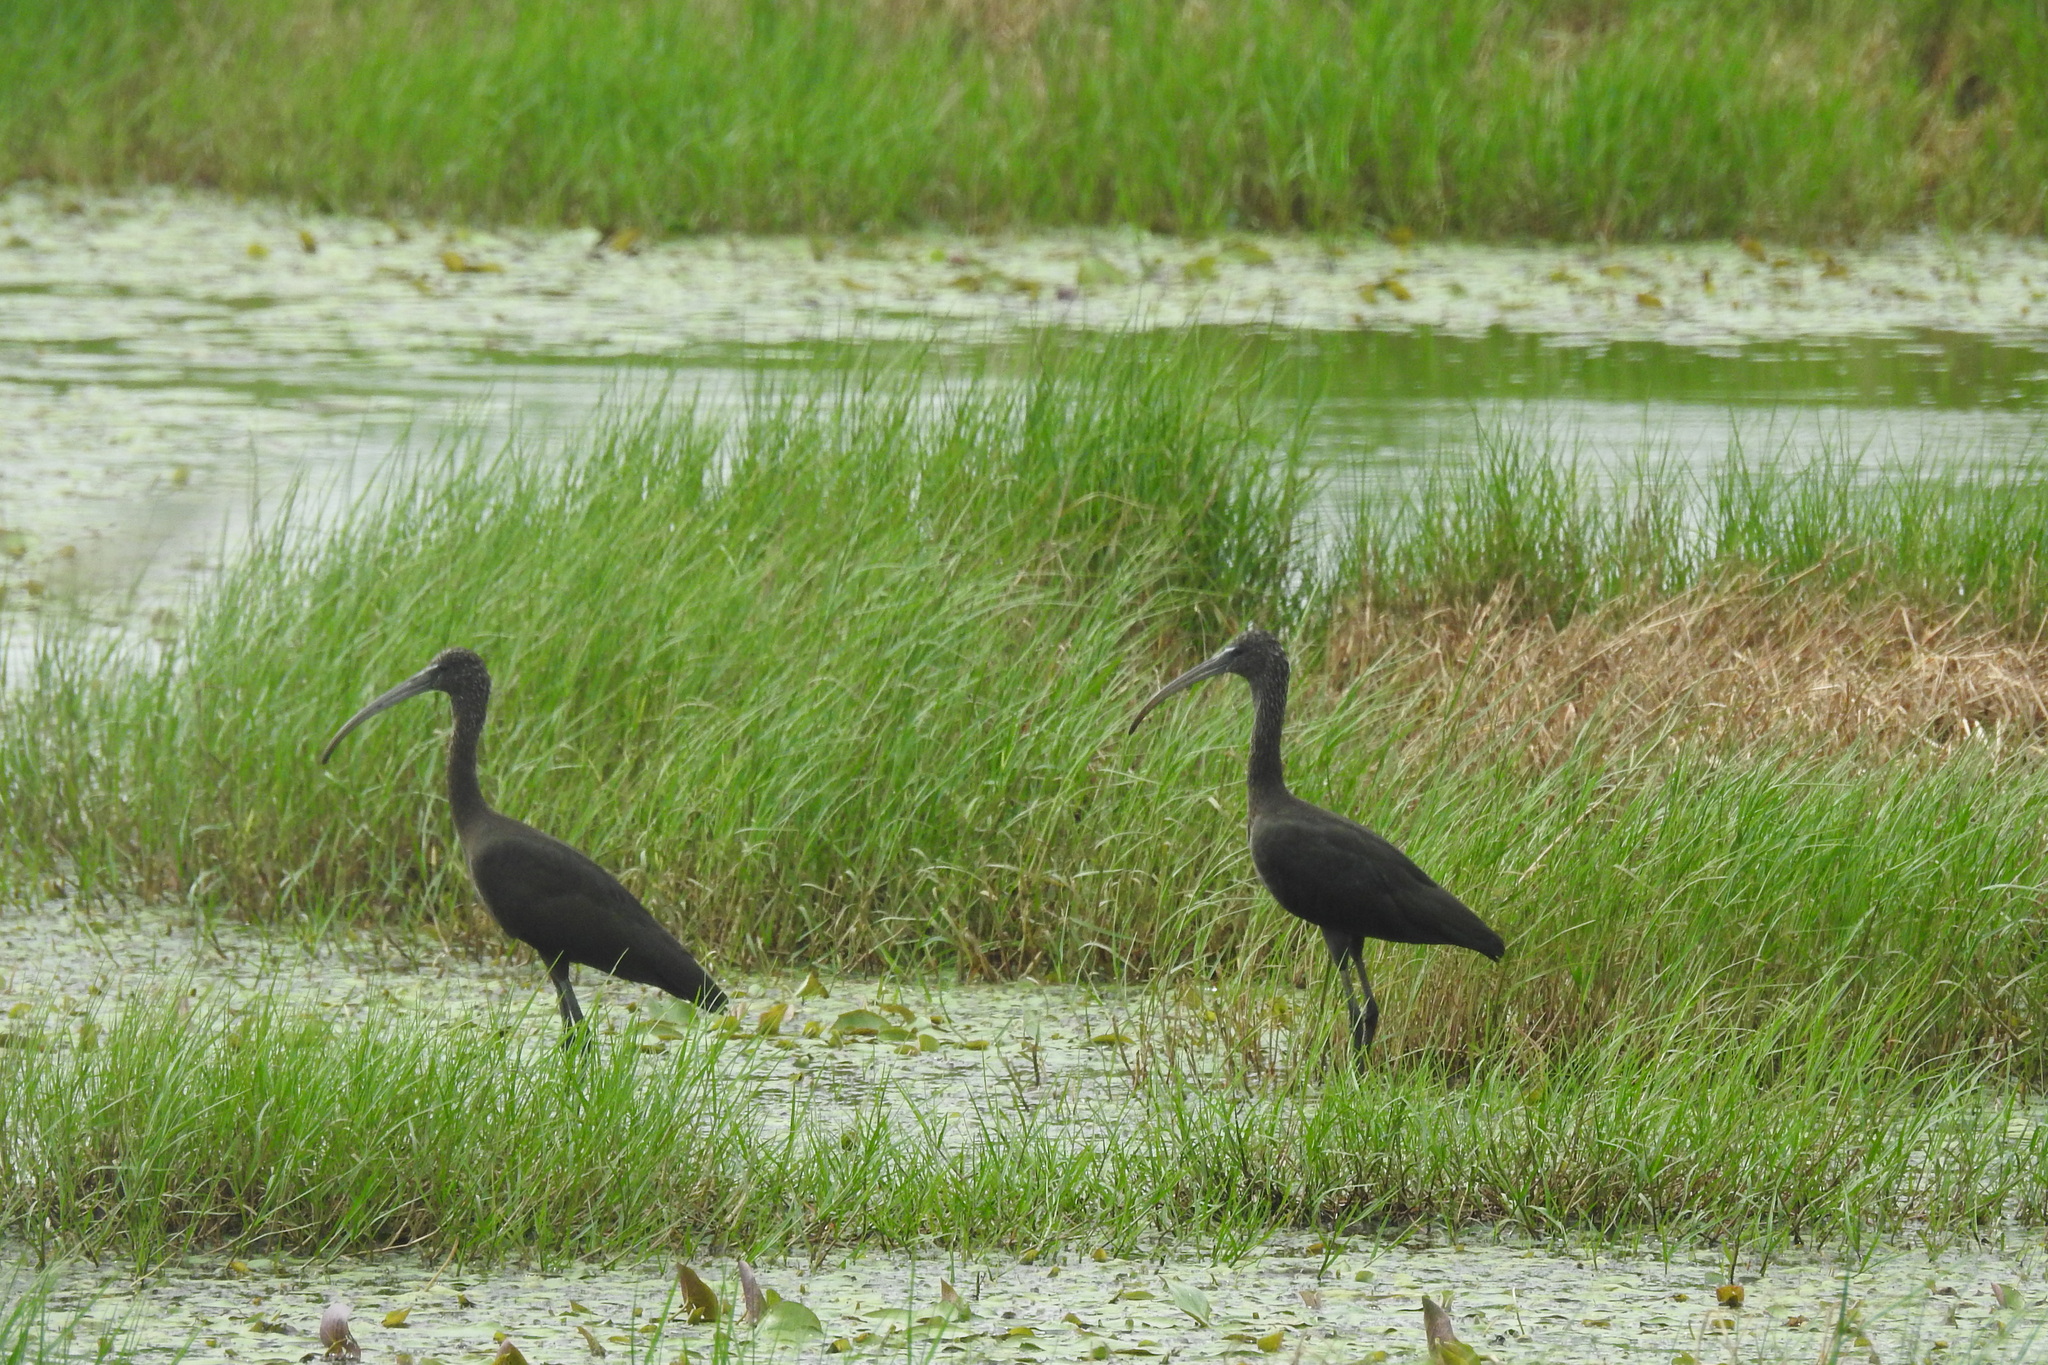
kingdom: Animalia
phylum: Chordata
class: Aves
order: Pelecaniformes
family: Threskiornithidae
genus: Plegadis
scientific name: Plegadis falcinellus
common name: Glossy ibis
